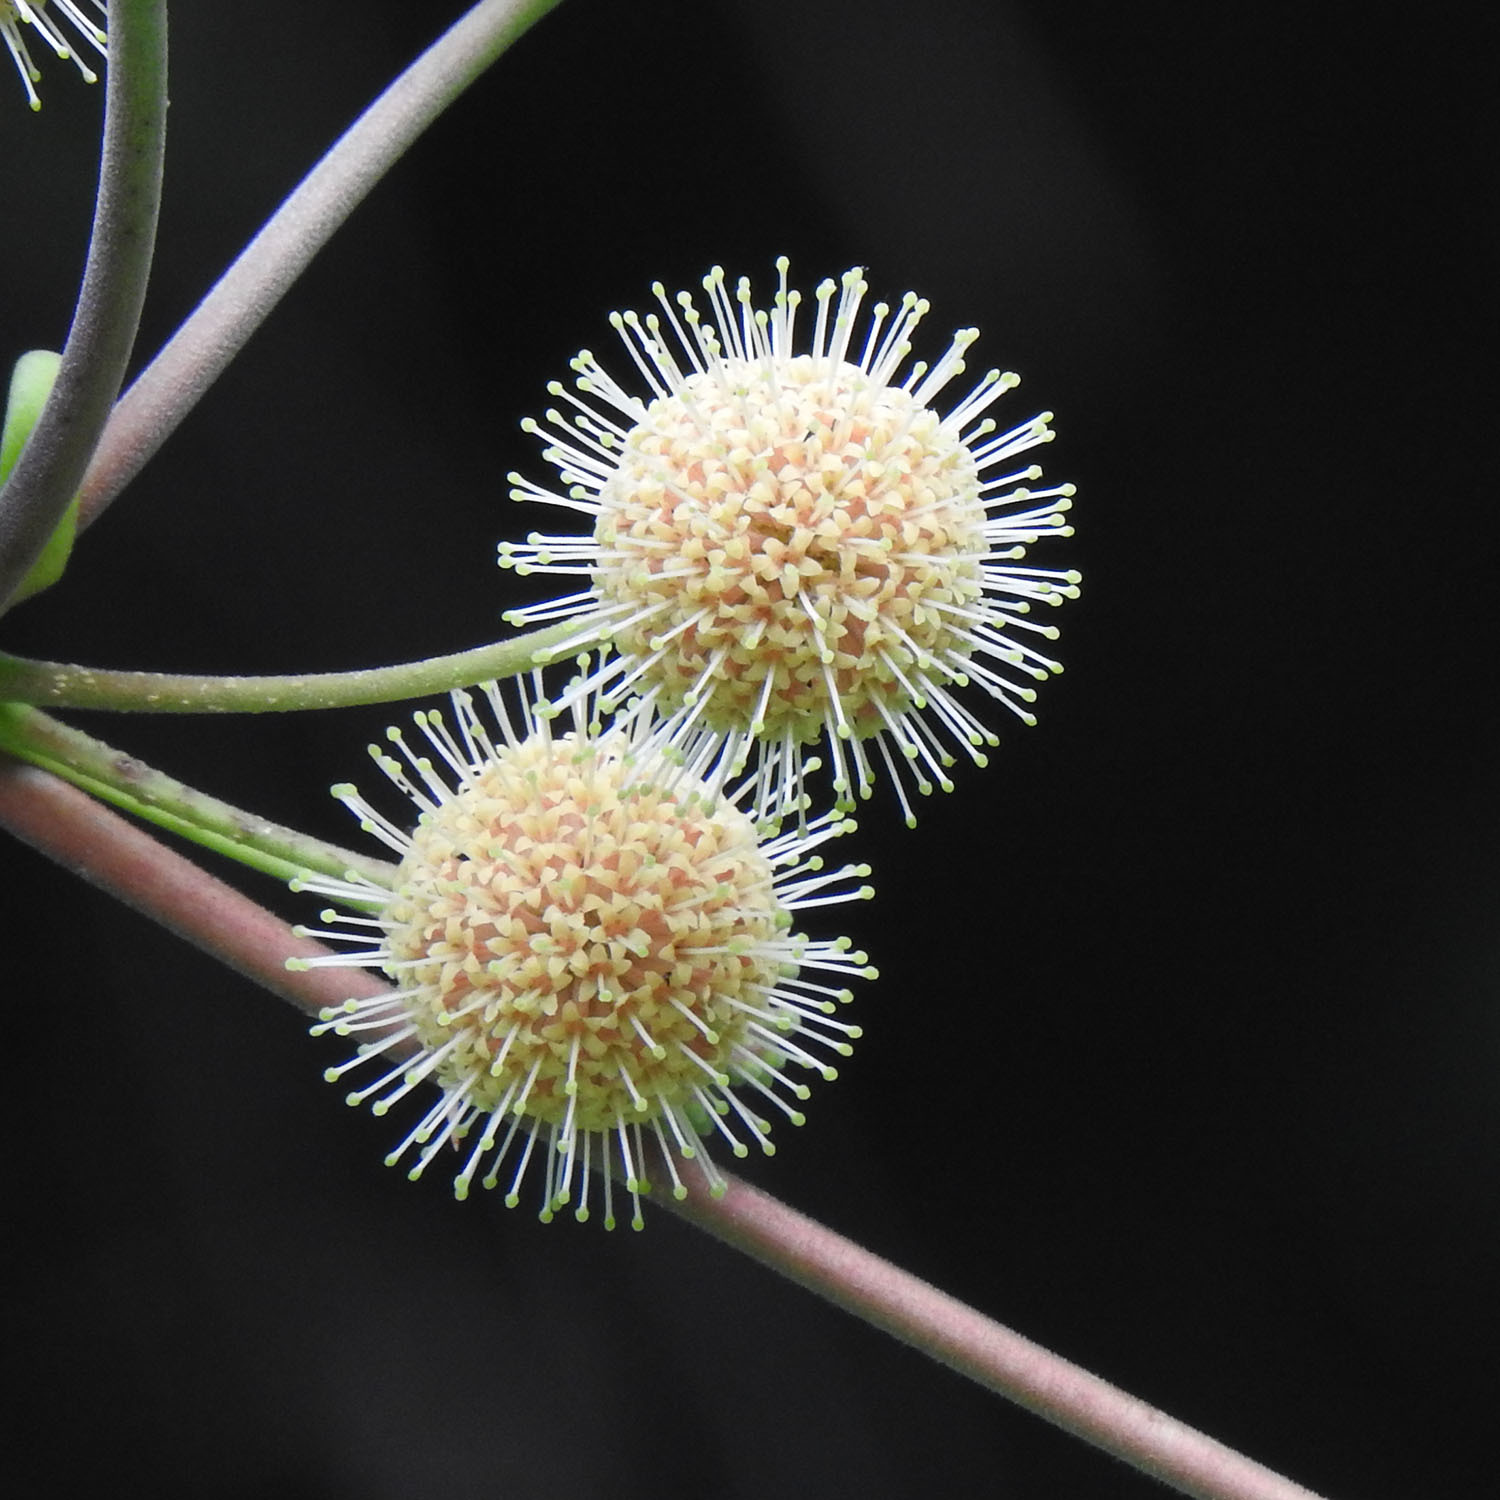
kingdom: Plantae
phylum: Tracheophyta
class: Magnoliopsida
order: Gentianales
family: Rubiaceae
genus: Adina
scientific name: Adina cordifolia
